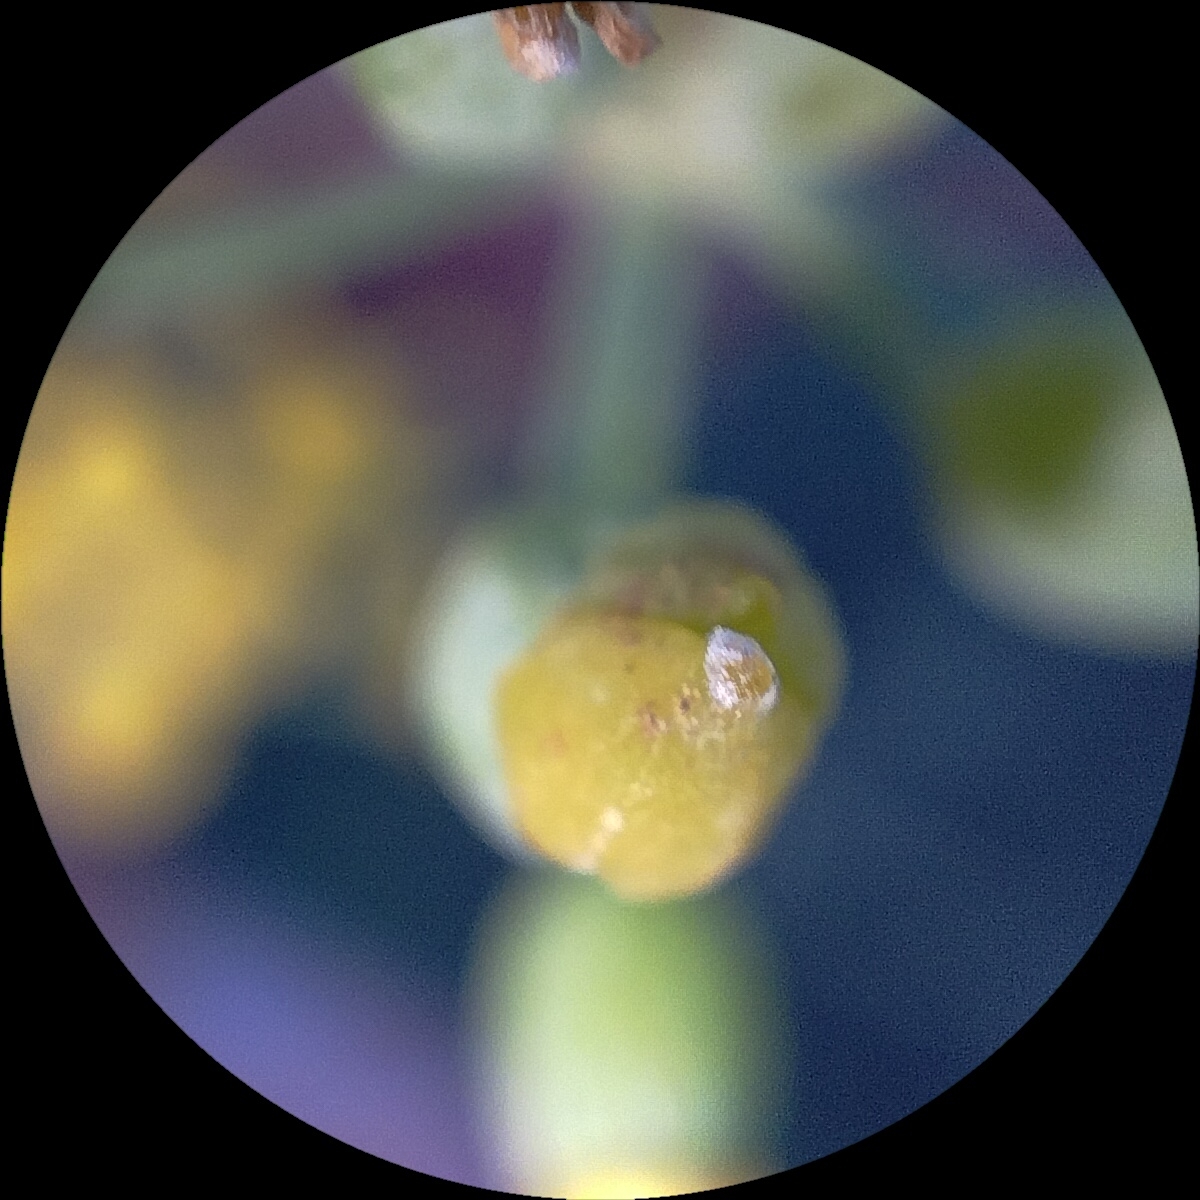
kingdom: Plantae
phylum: Tracheophyta
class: Magnoliopsida
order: Apiales
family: Apiaceae
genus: Foeniculum
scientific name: Foeniculum vulgare
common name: Fennel
